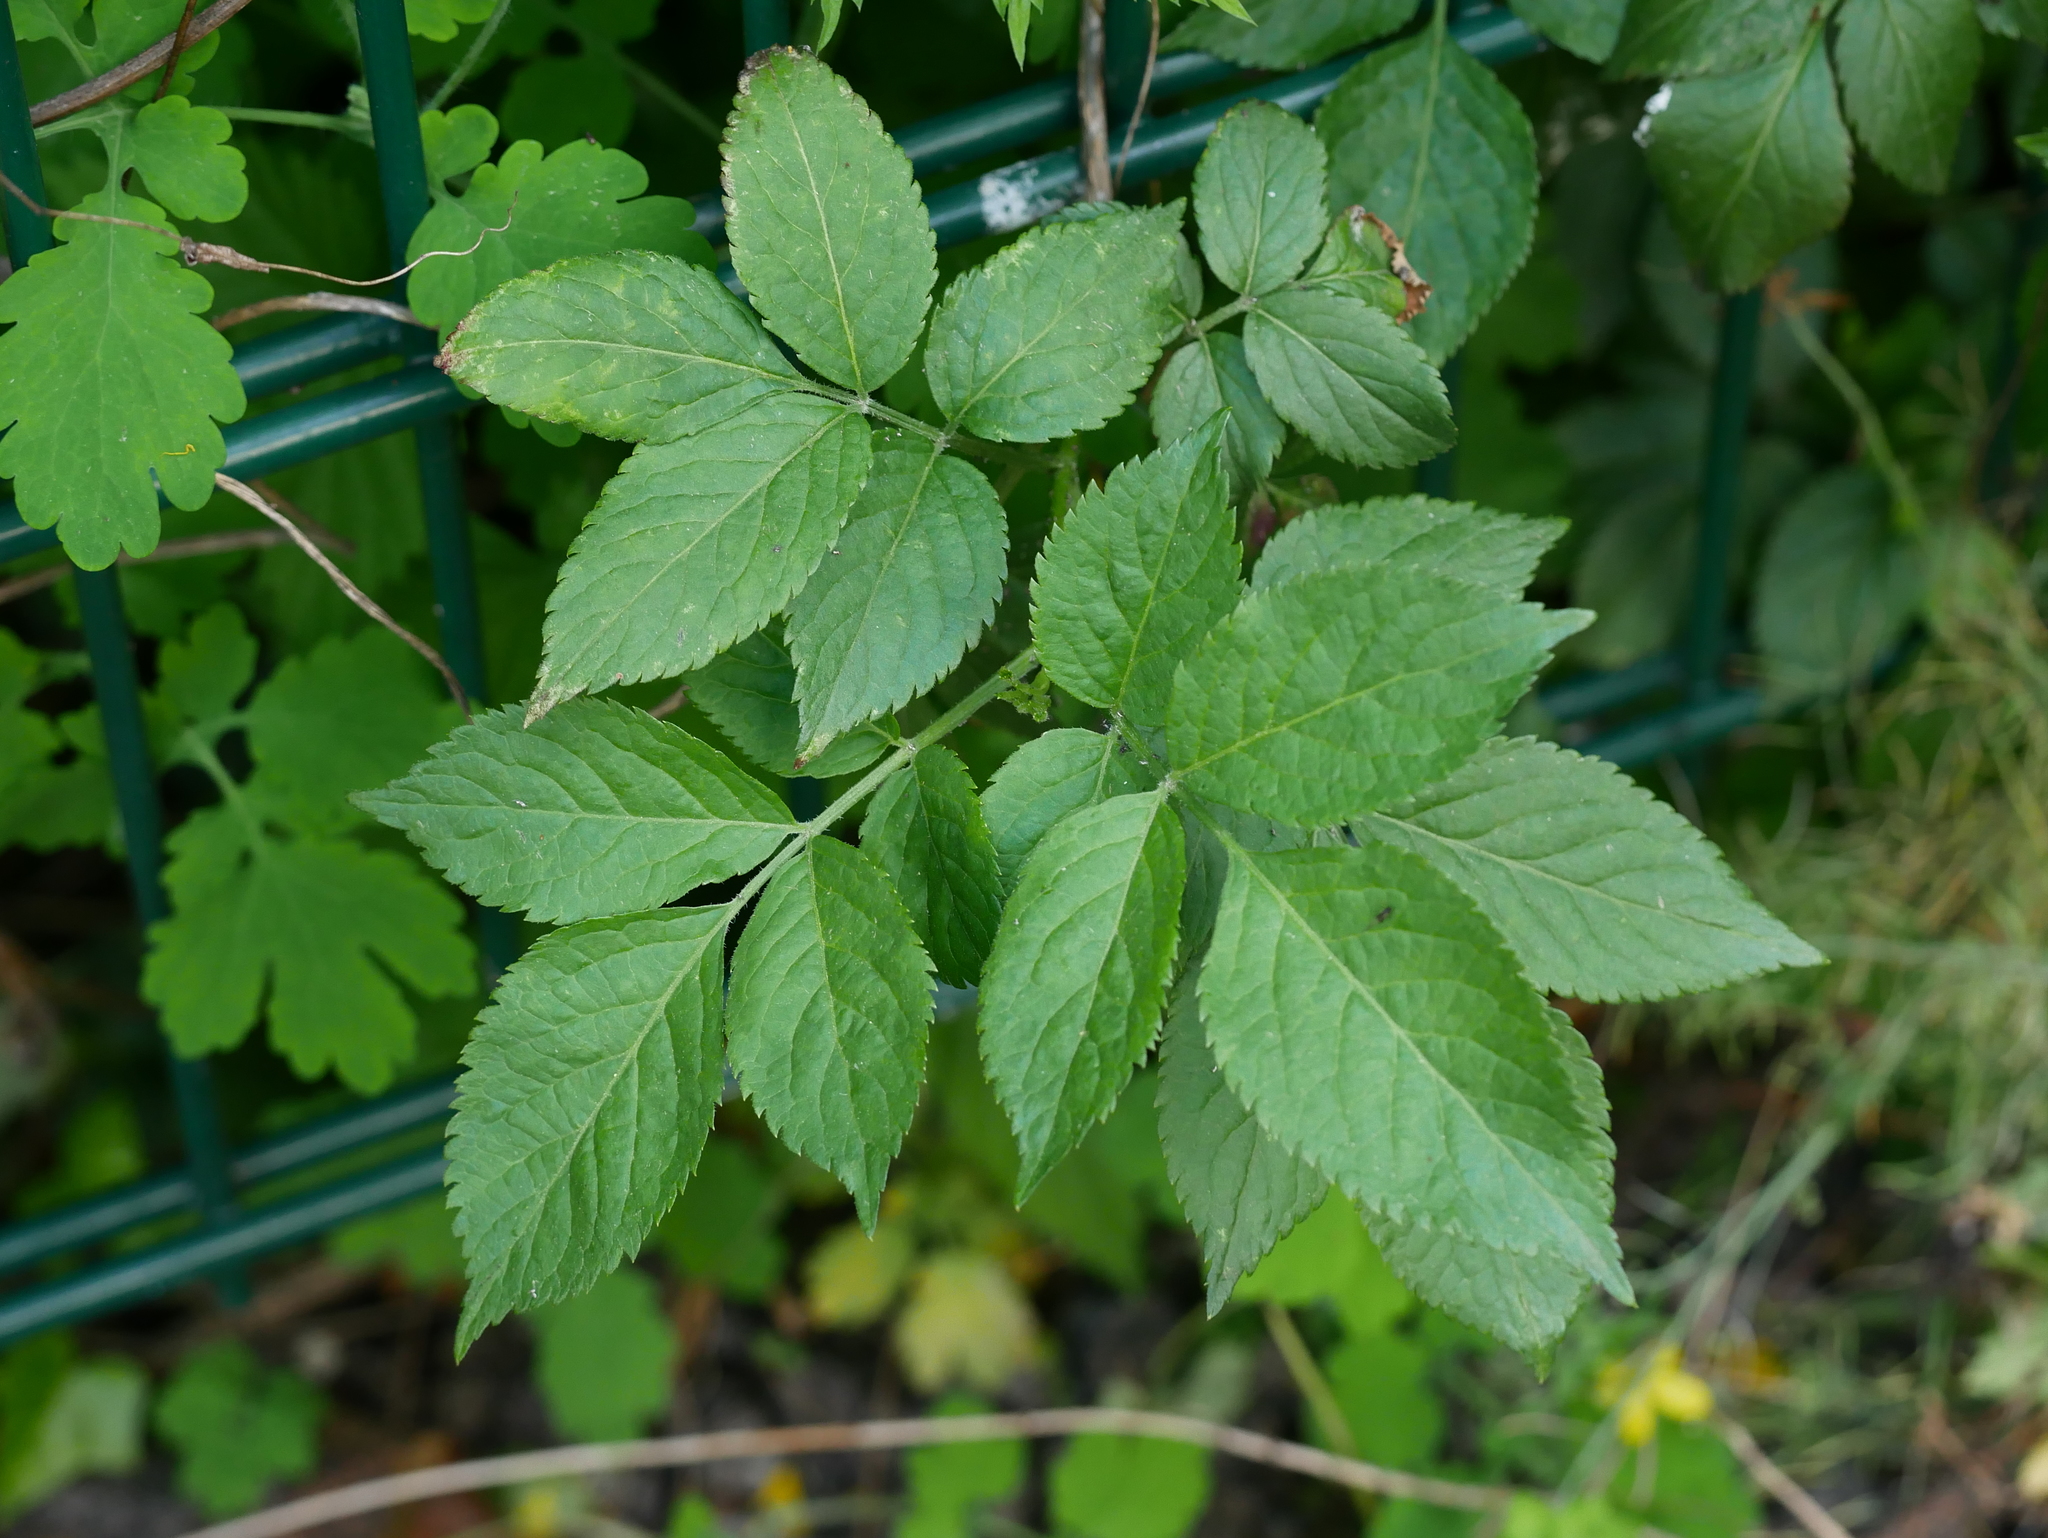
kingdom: Plantae
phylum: Tracheophyta
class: Magnoliopsida
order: Dipsacales
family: Viburnaceae
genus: Sambucus
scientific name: Sambucus nigra
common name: Elder
